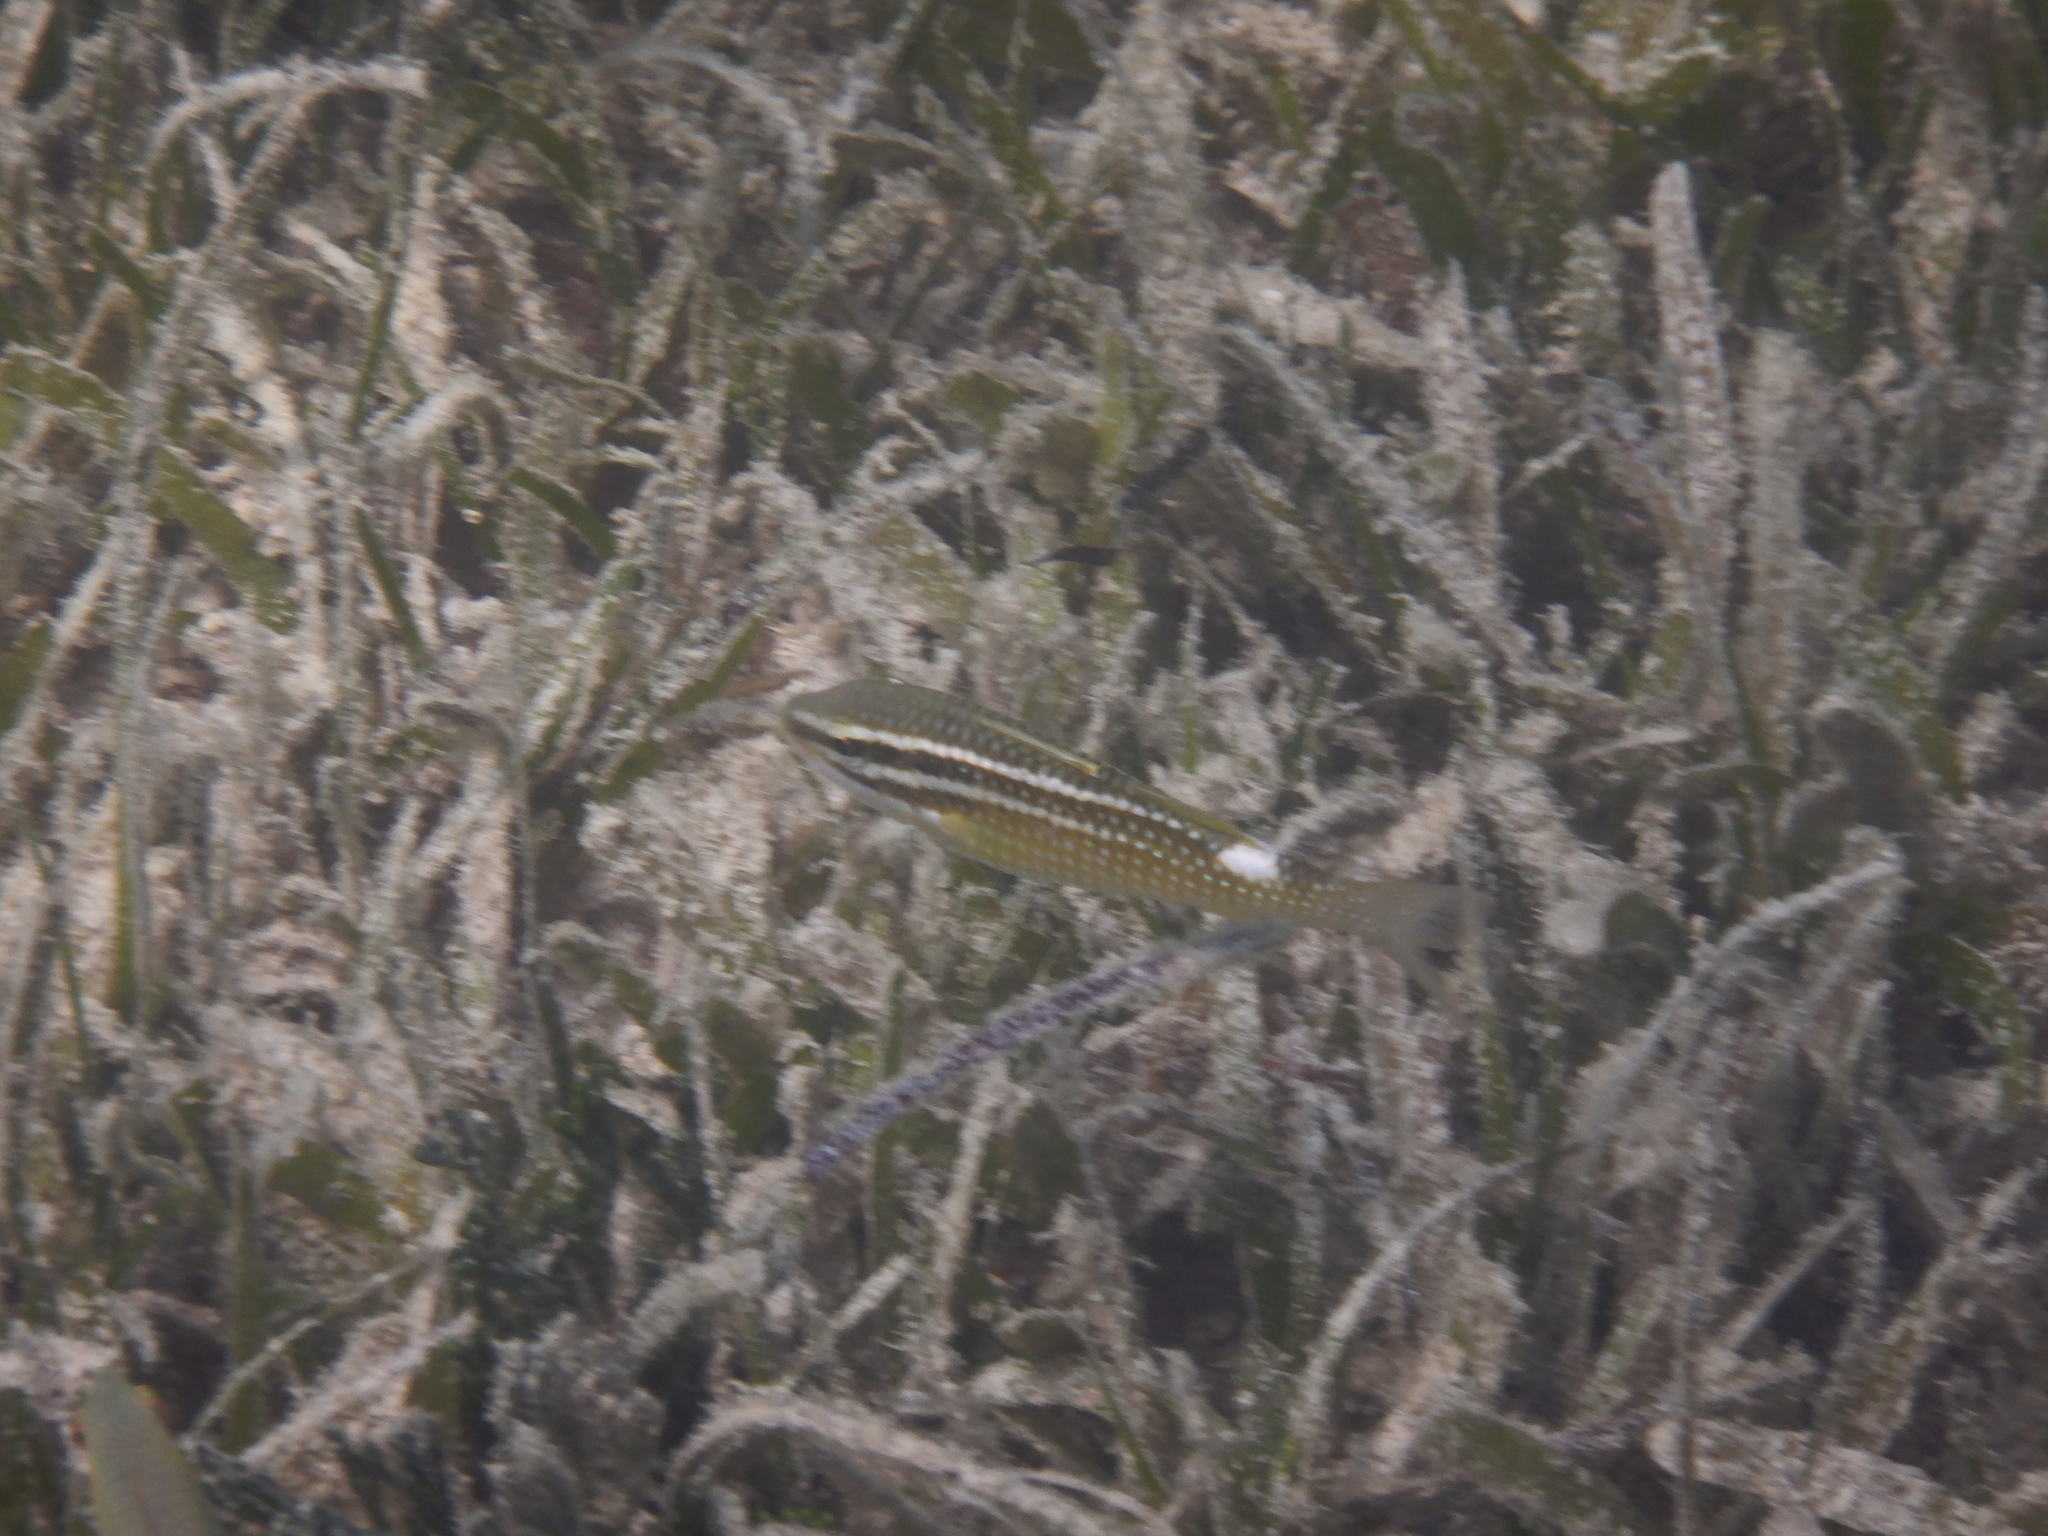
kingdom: Animalia
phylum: Chordata
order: Perciformes
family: Mullidae
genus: Parupeneus
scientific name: Parupeneus ciliatus
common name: White-lined goatfish
